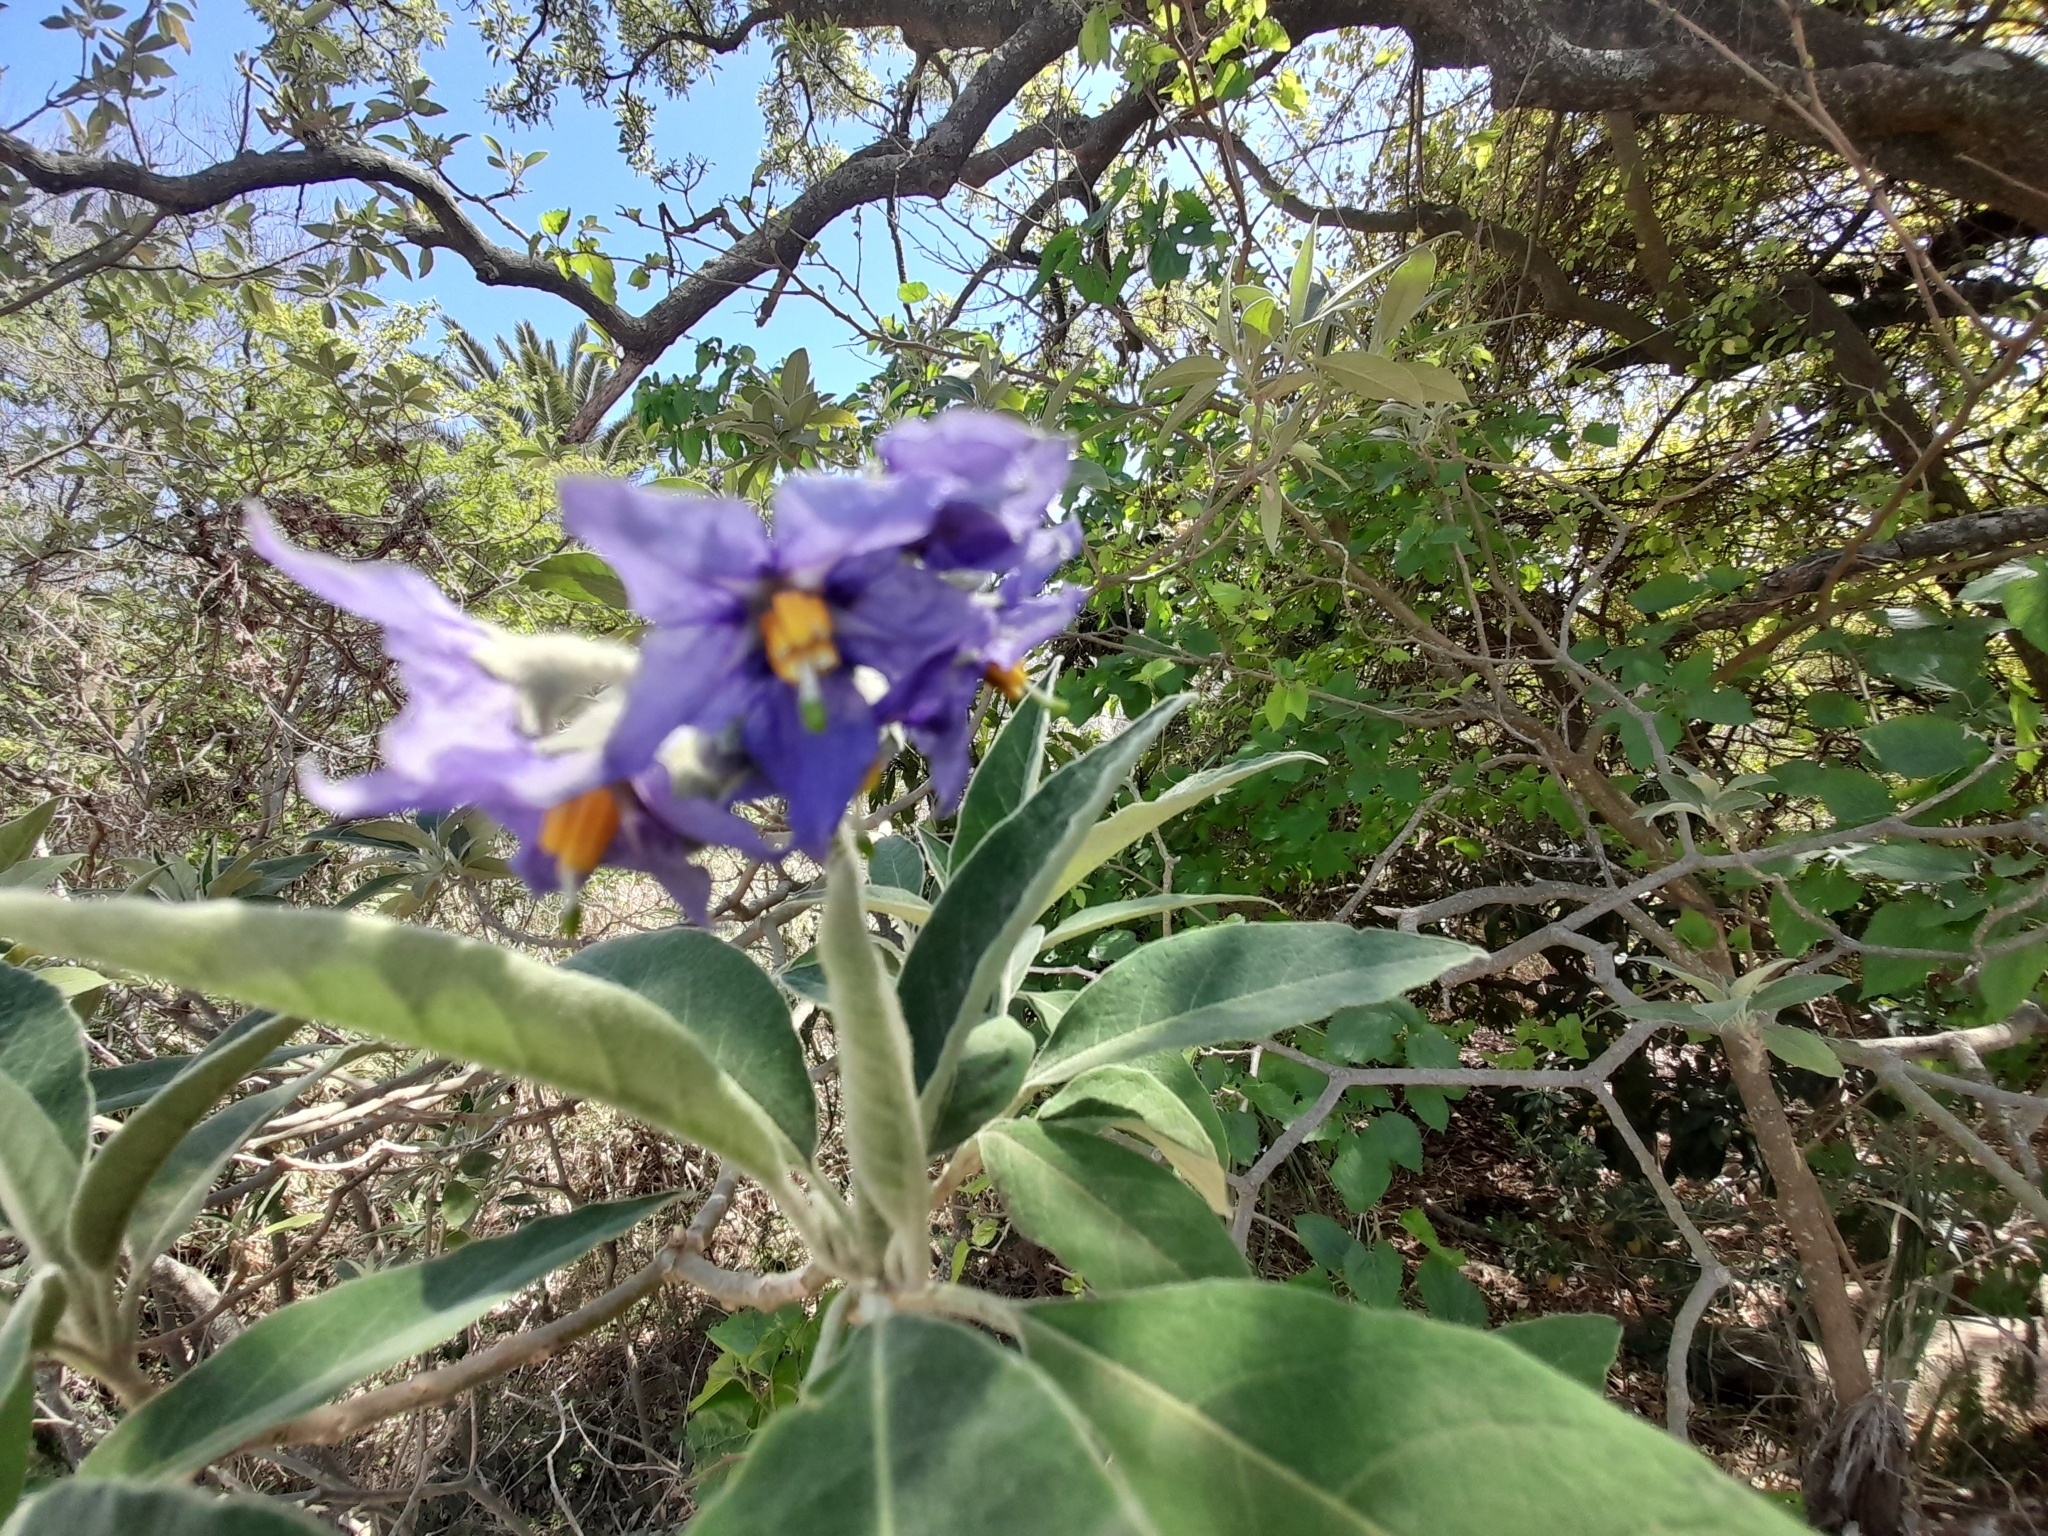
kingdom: Plantae
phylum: Tracheophyta
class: Magnoliopsida
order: Solanales
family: Solanaceae
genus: Solanum
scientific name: Solanum granulosoleprosum
